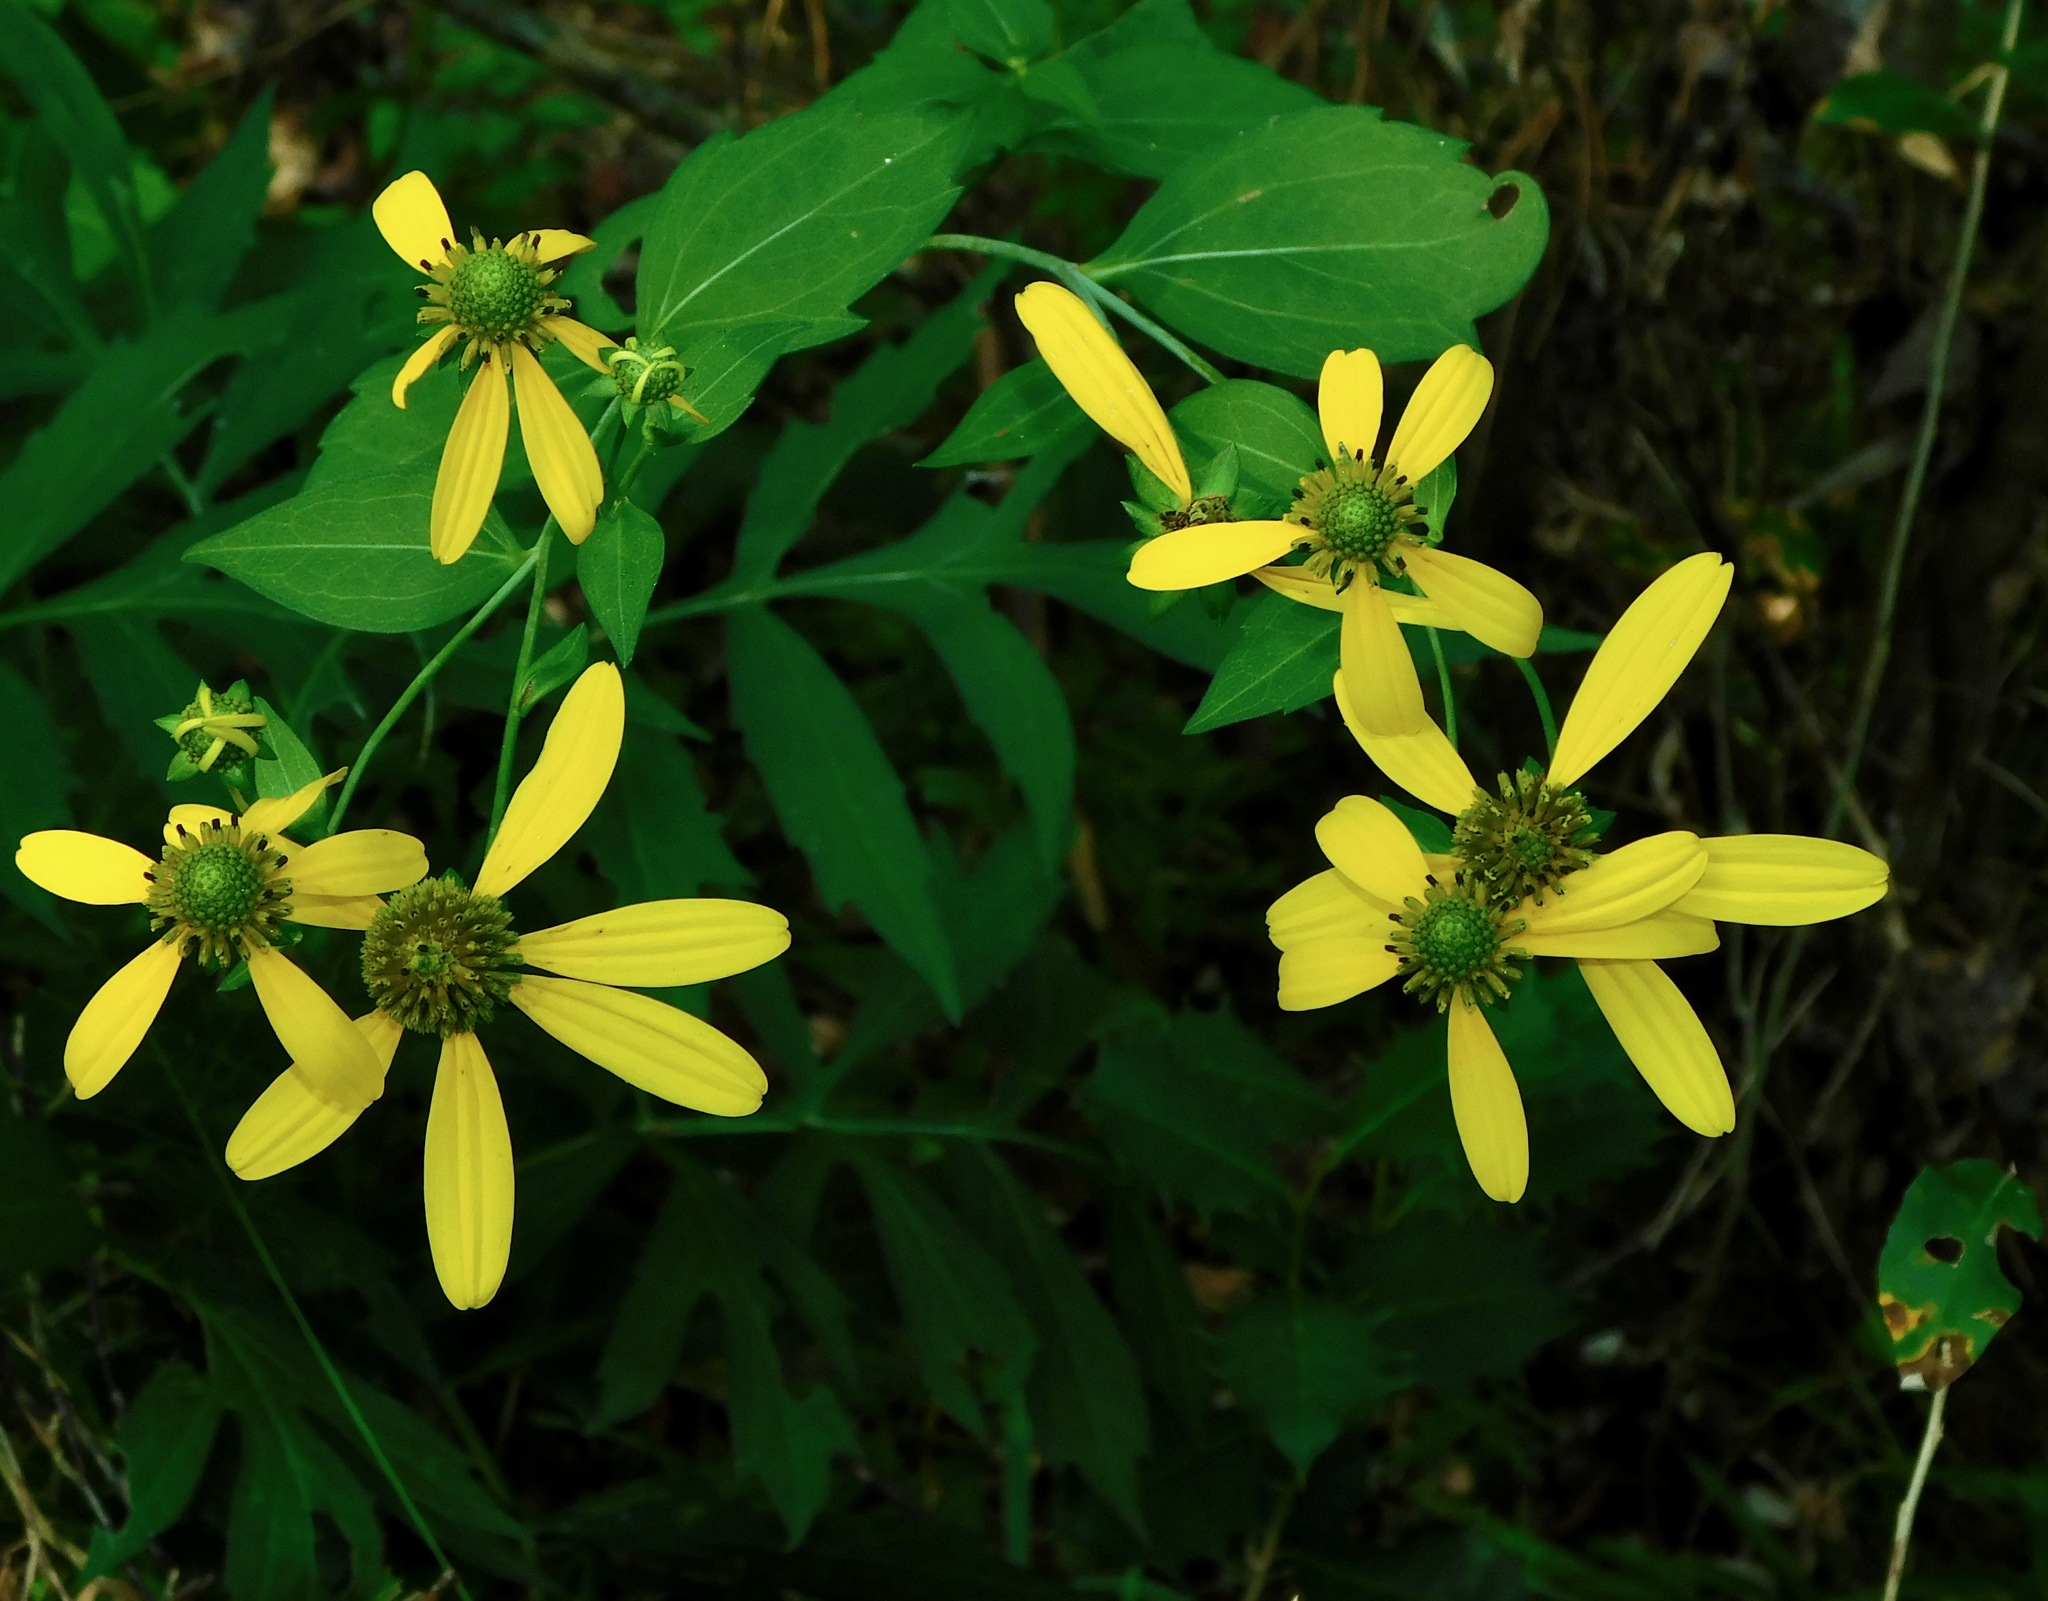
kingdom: Plantae
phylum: Tracheophyta
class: Magnoliopsida
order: Asterales
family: Asteraceae
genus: Rudbeckia
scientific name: Rudbeckia laciniata
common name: Coneflower
